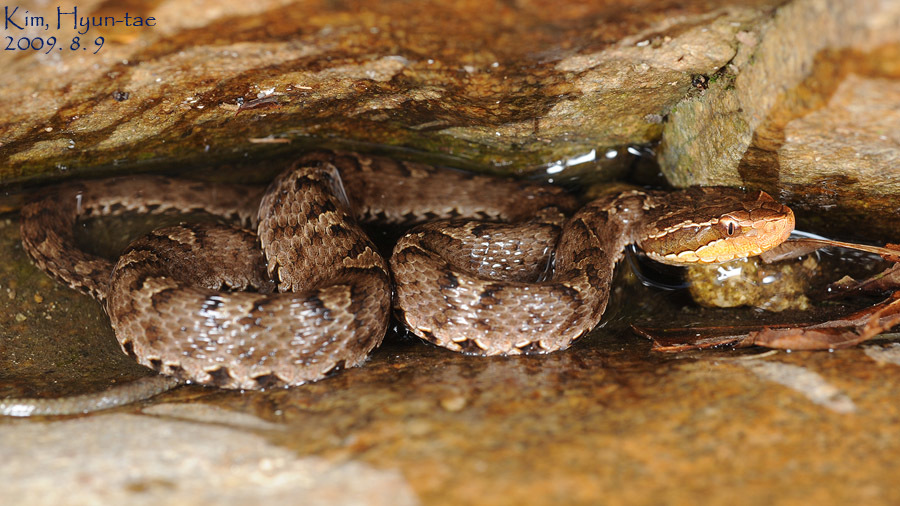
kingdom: Animalia
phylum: Chordata
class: Squamata
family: Viperidae
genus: Gloydius
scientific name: Gloydius ussuriensis
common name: Ussuri mamushi
